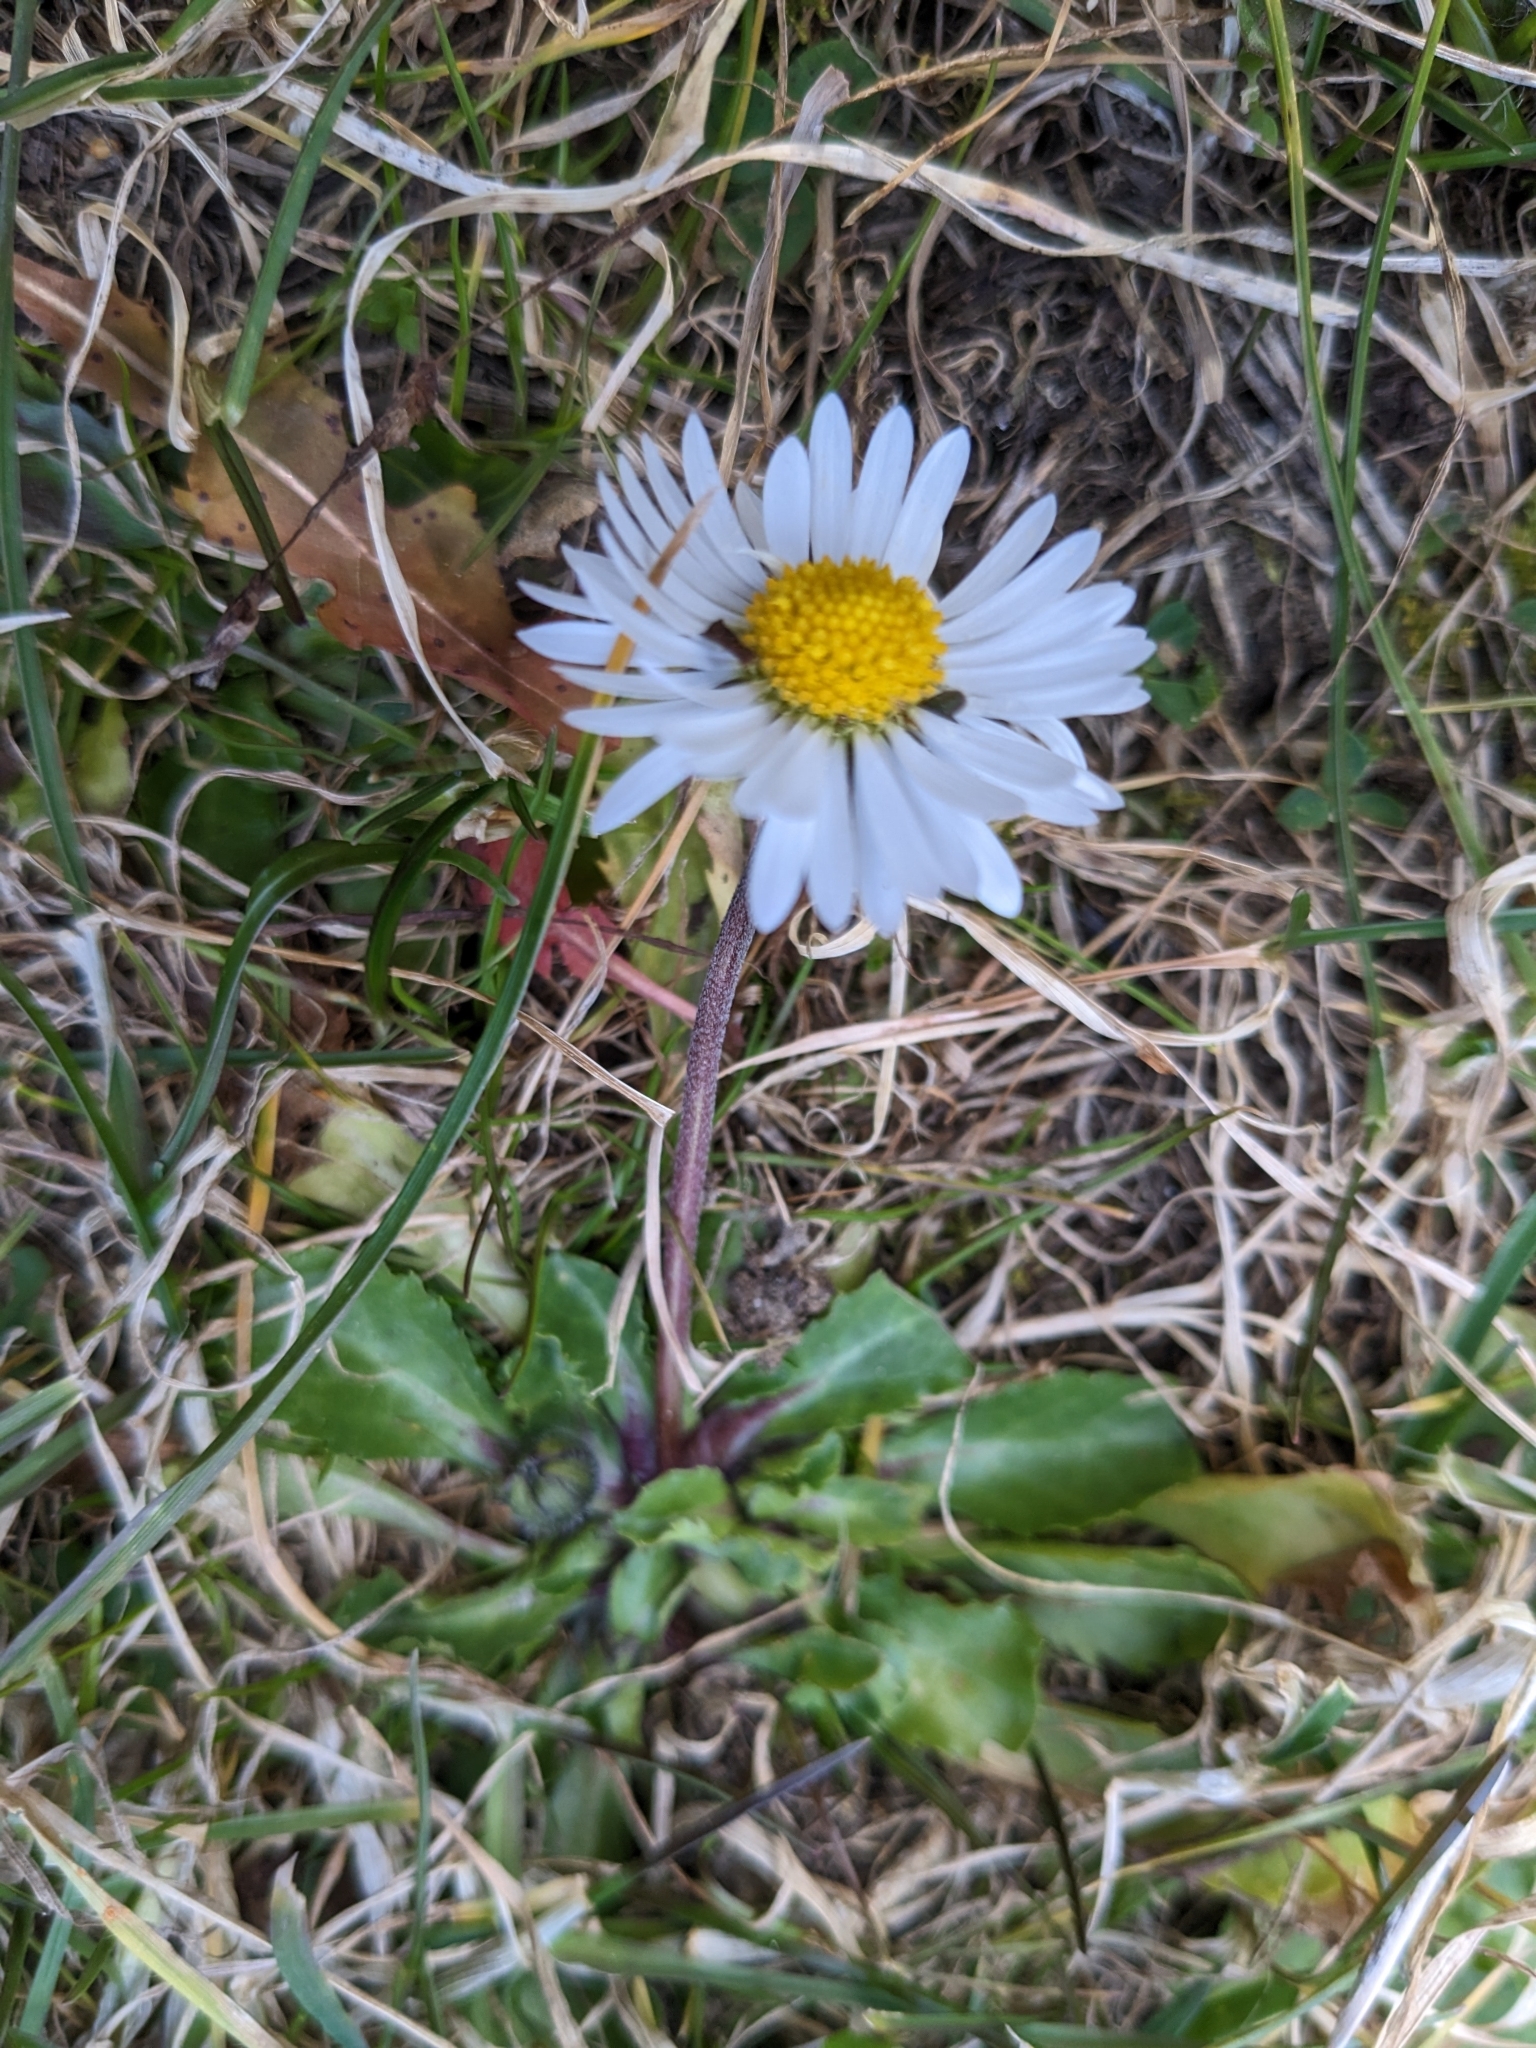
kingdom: Plantae
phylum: Tracheophyta
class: Magnoliopsida
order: Asterales
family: Asteraceae
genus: Bellis
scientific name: Bellis perennis
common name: Lawndaisy
